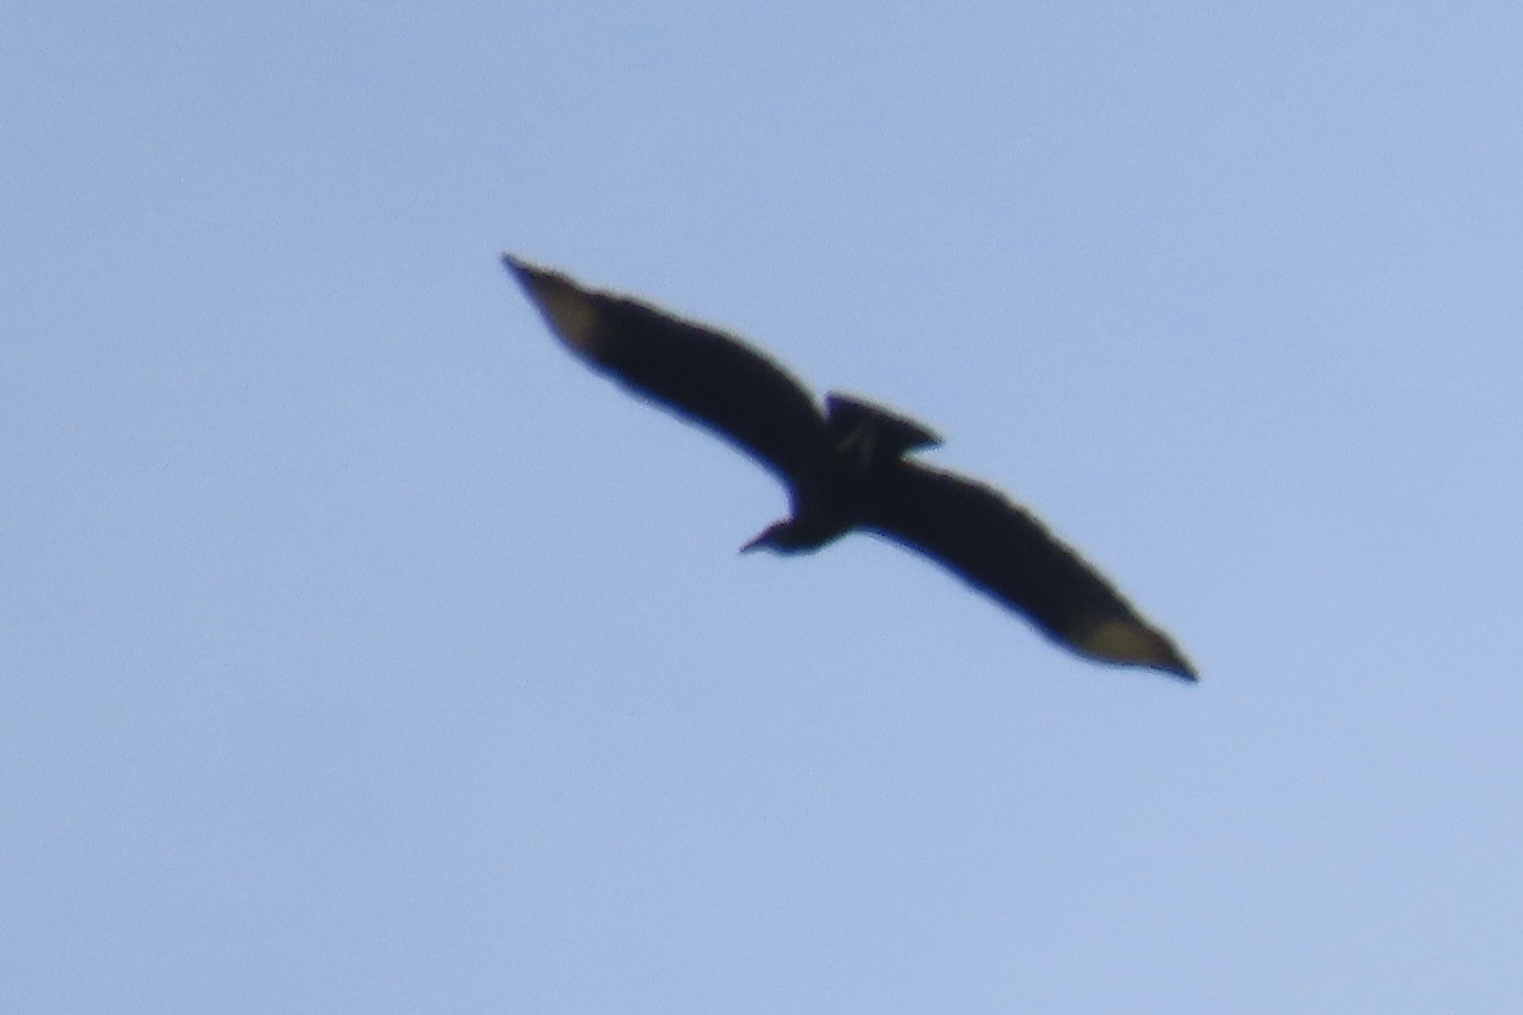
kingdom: Animalia
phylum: Chordata
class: Aves
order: Accipitriformes
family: Cathartidae
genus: Coragyps
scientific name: Coragyps atratus
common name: Black vulture
